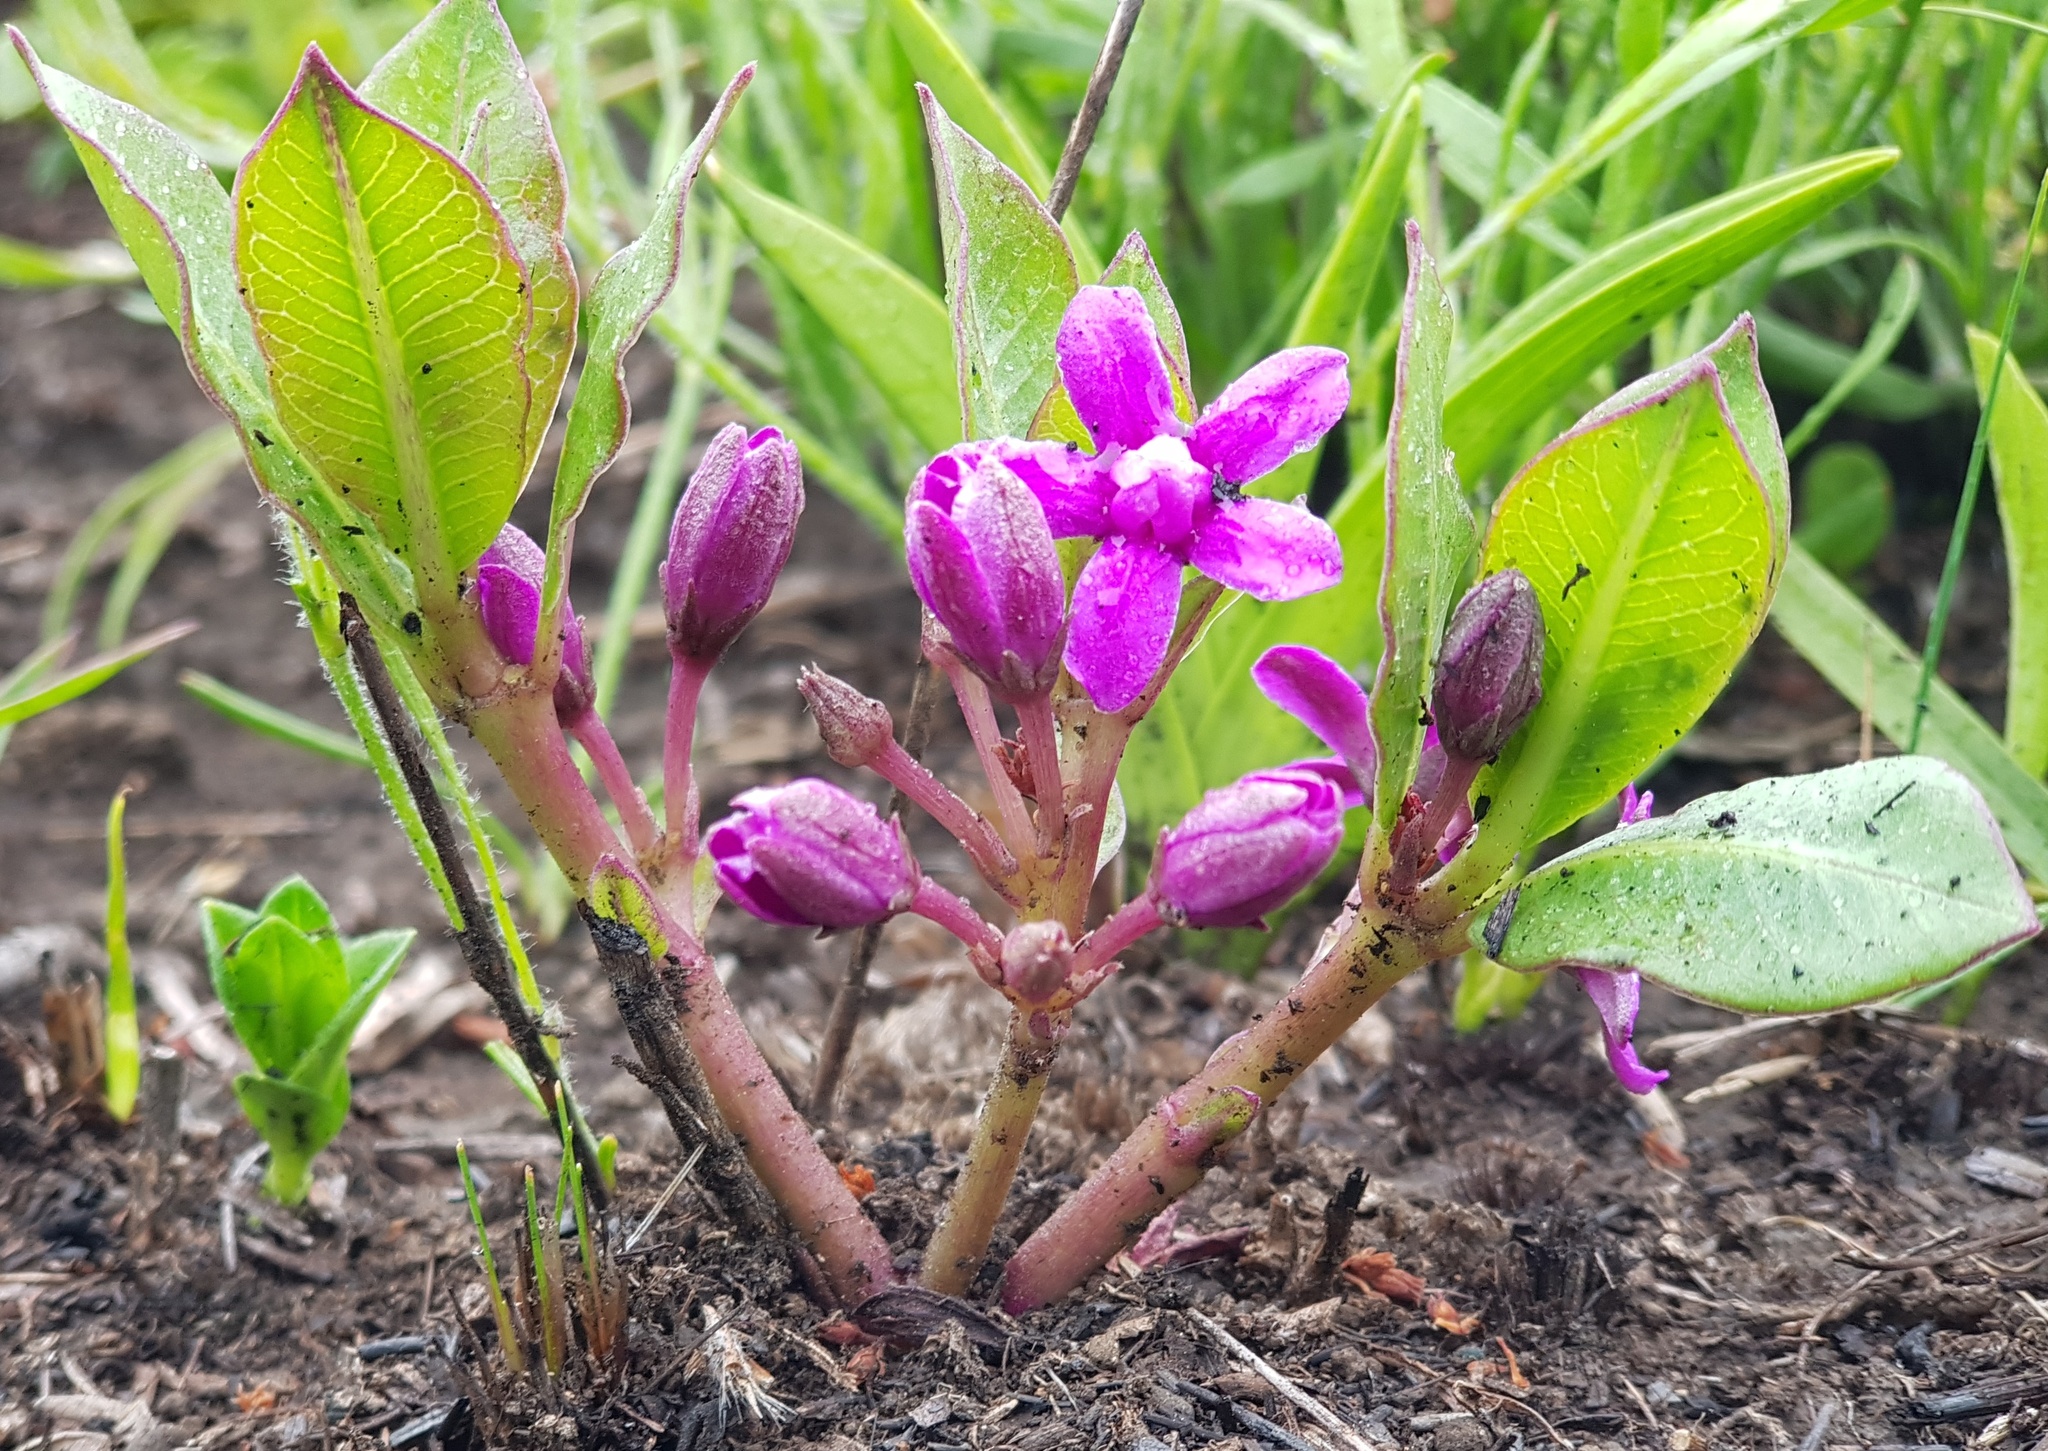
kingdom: Plantae
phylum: Tracheophyta
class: Magnoliopsida
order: Gentianales
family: Apocynaceae
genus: Raphionacme
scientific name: Raphionacme hirsuta
